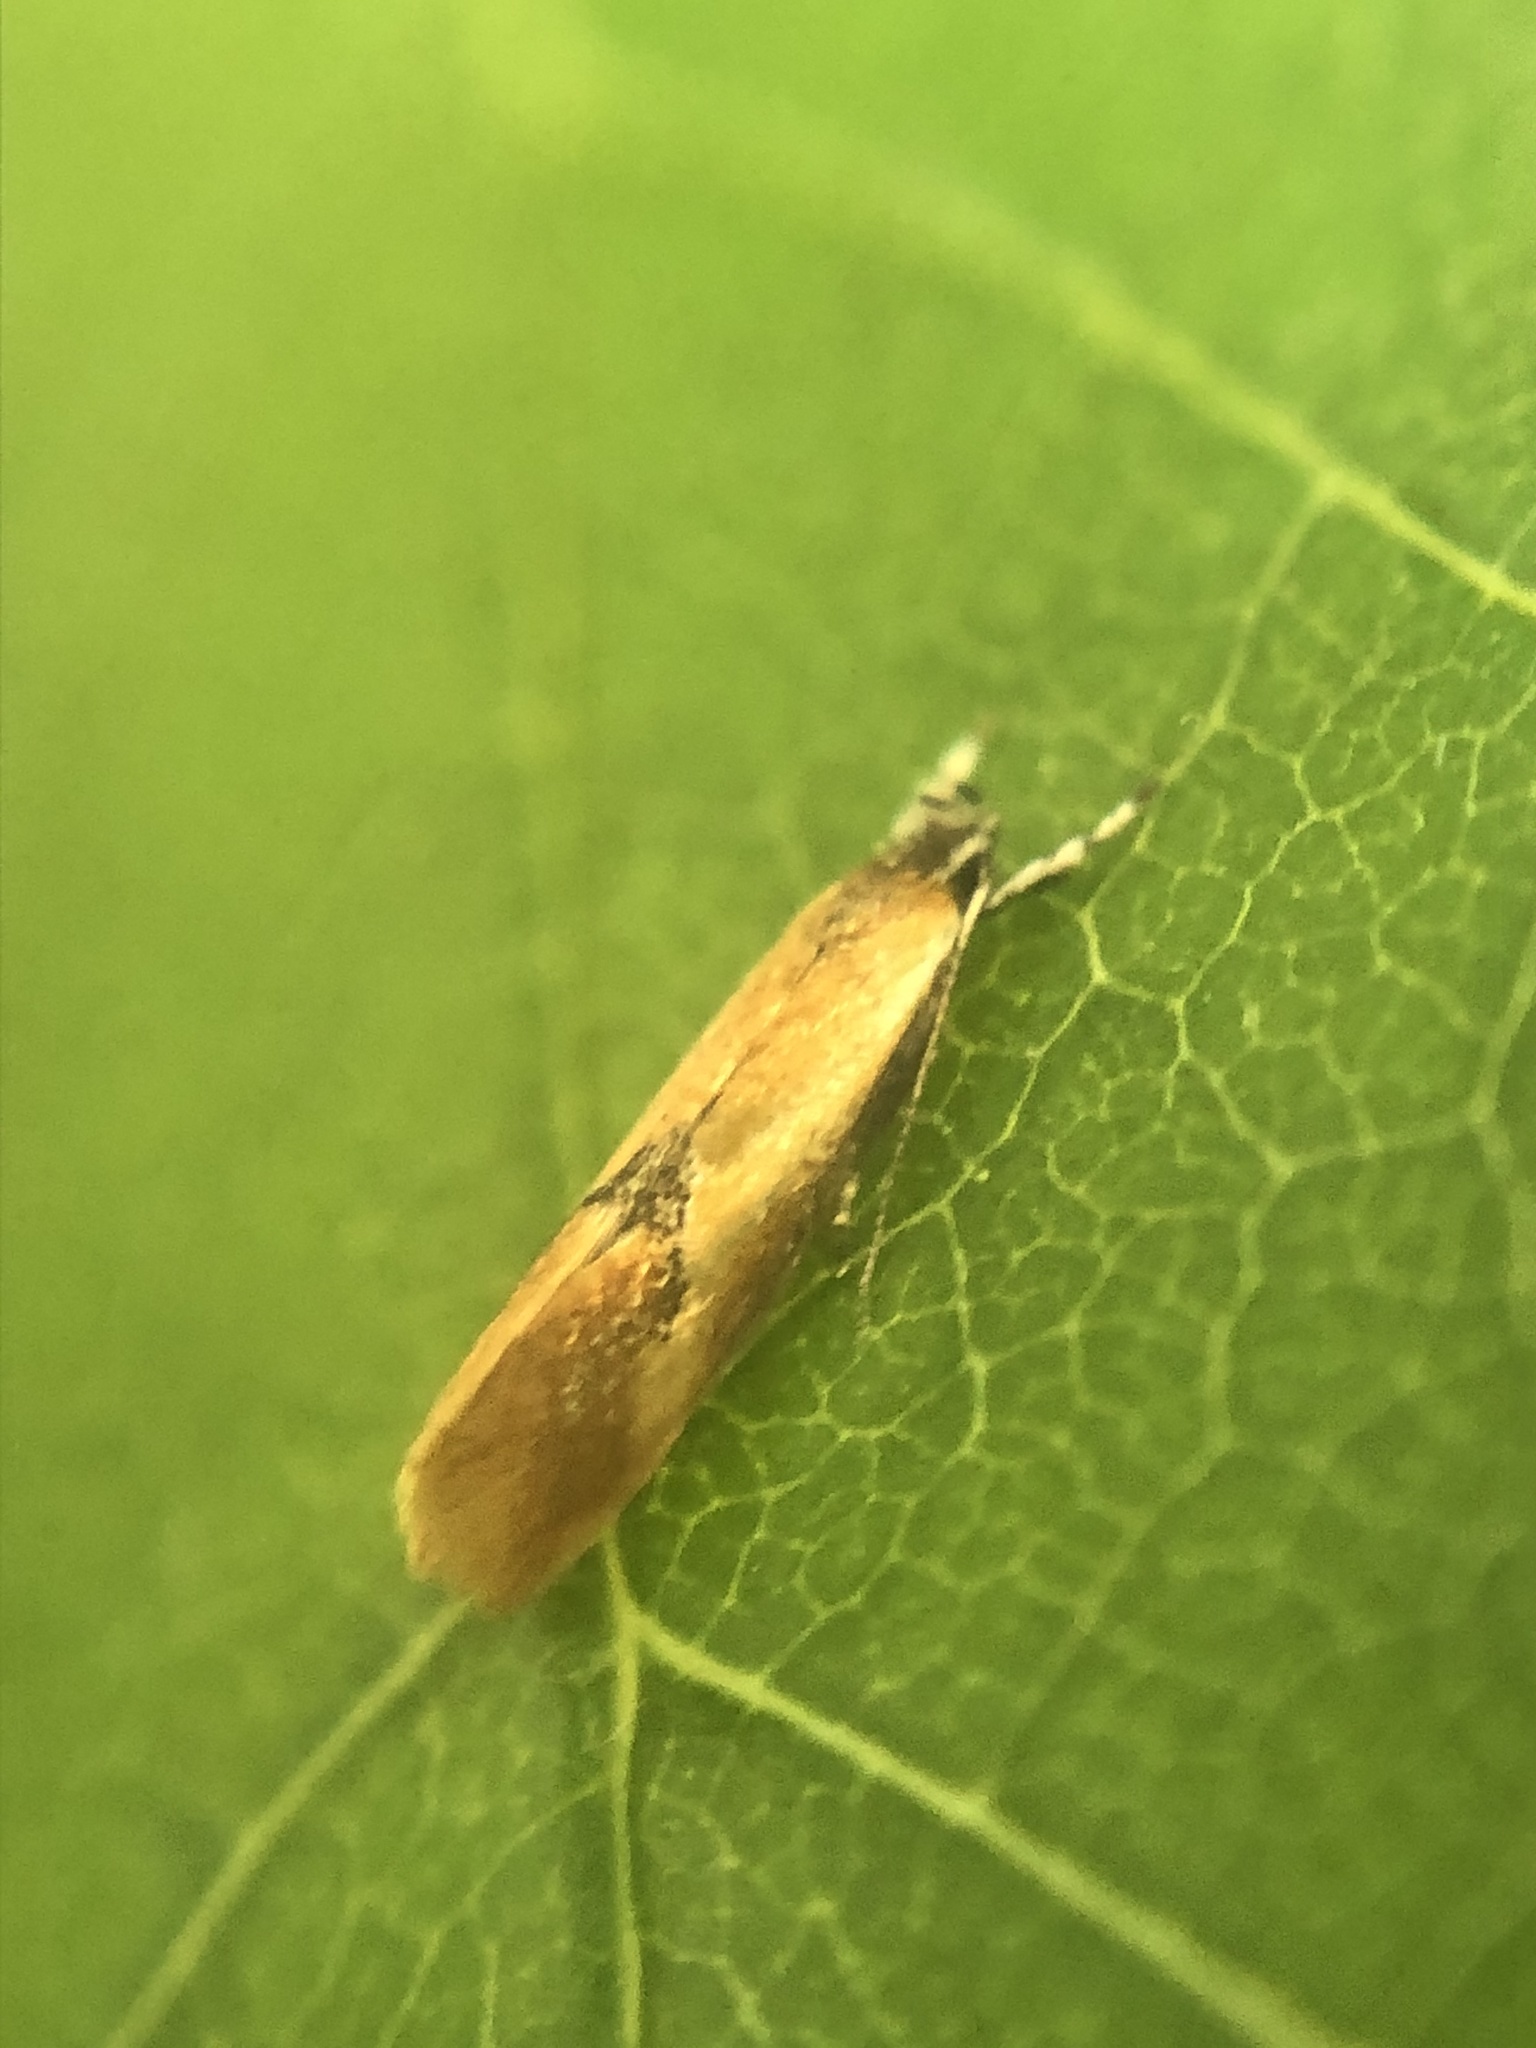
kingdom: Animalia
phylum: Arthropoda
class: Insecta
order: Lepidoptera
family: Oecophoridae
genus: Batia
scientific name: Batia lunaris
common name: Moth
